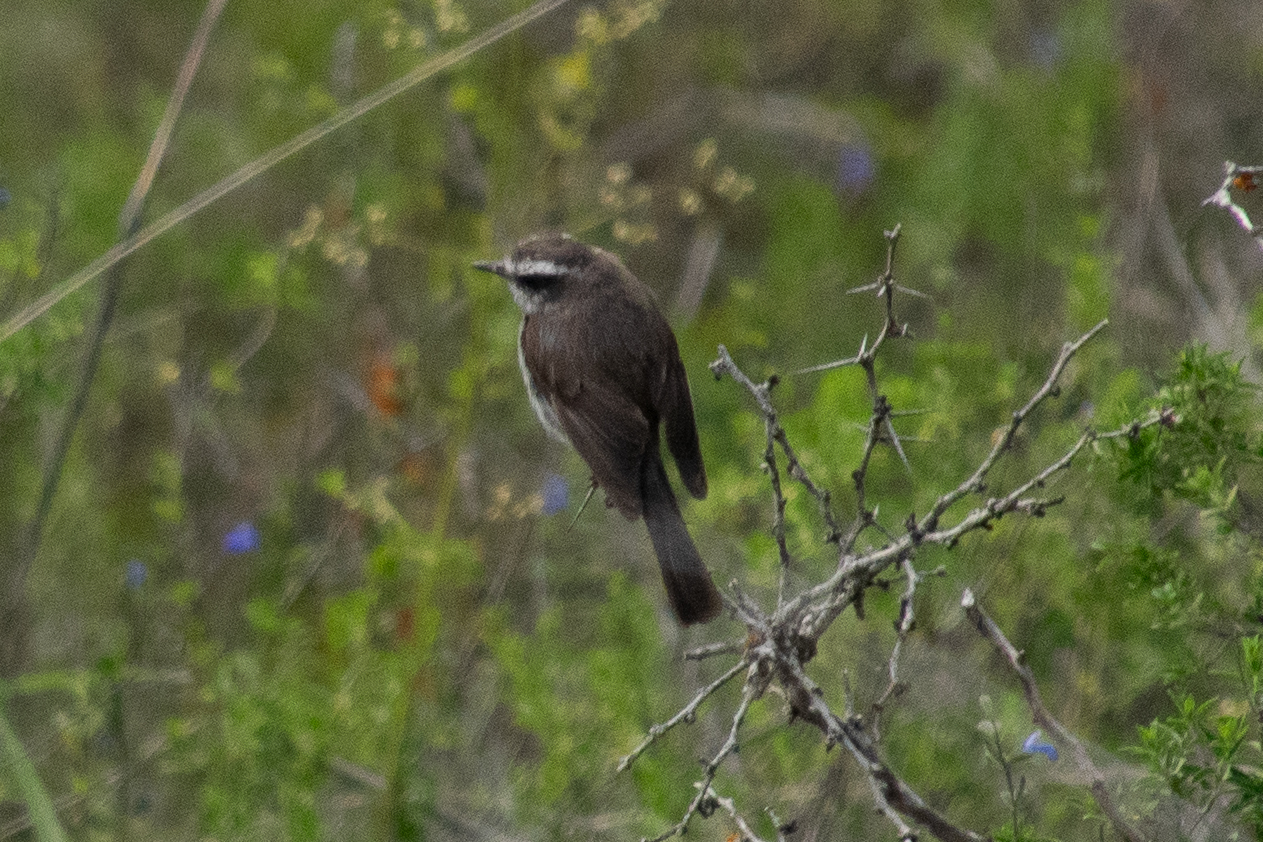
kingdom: Animalia
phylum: Chordata
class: Aves
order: Passeriformes
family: Tyrannidae
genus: Ochthoeca
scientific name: Ochthoeca leucophrys
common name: White-browed chat-tyrant
